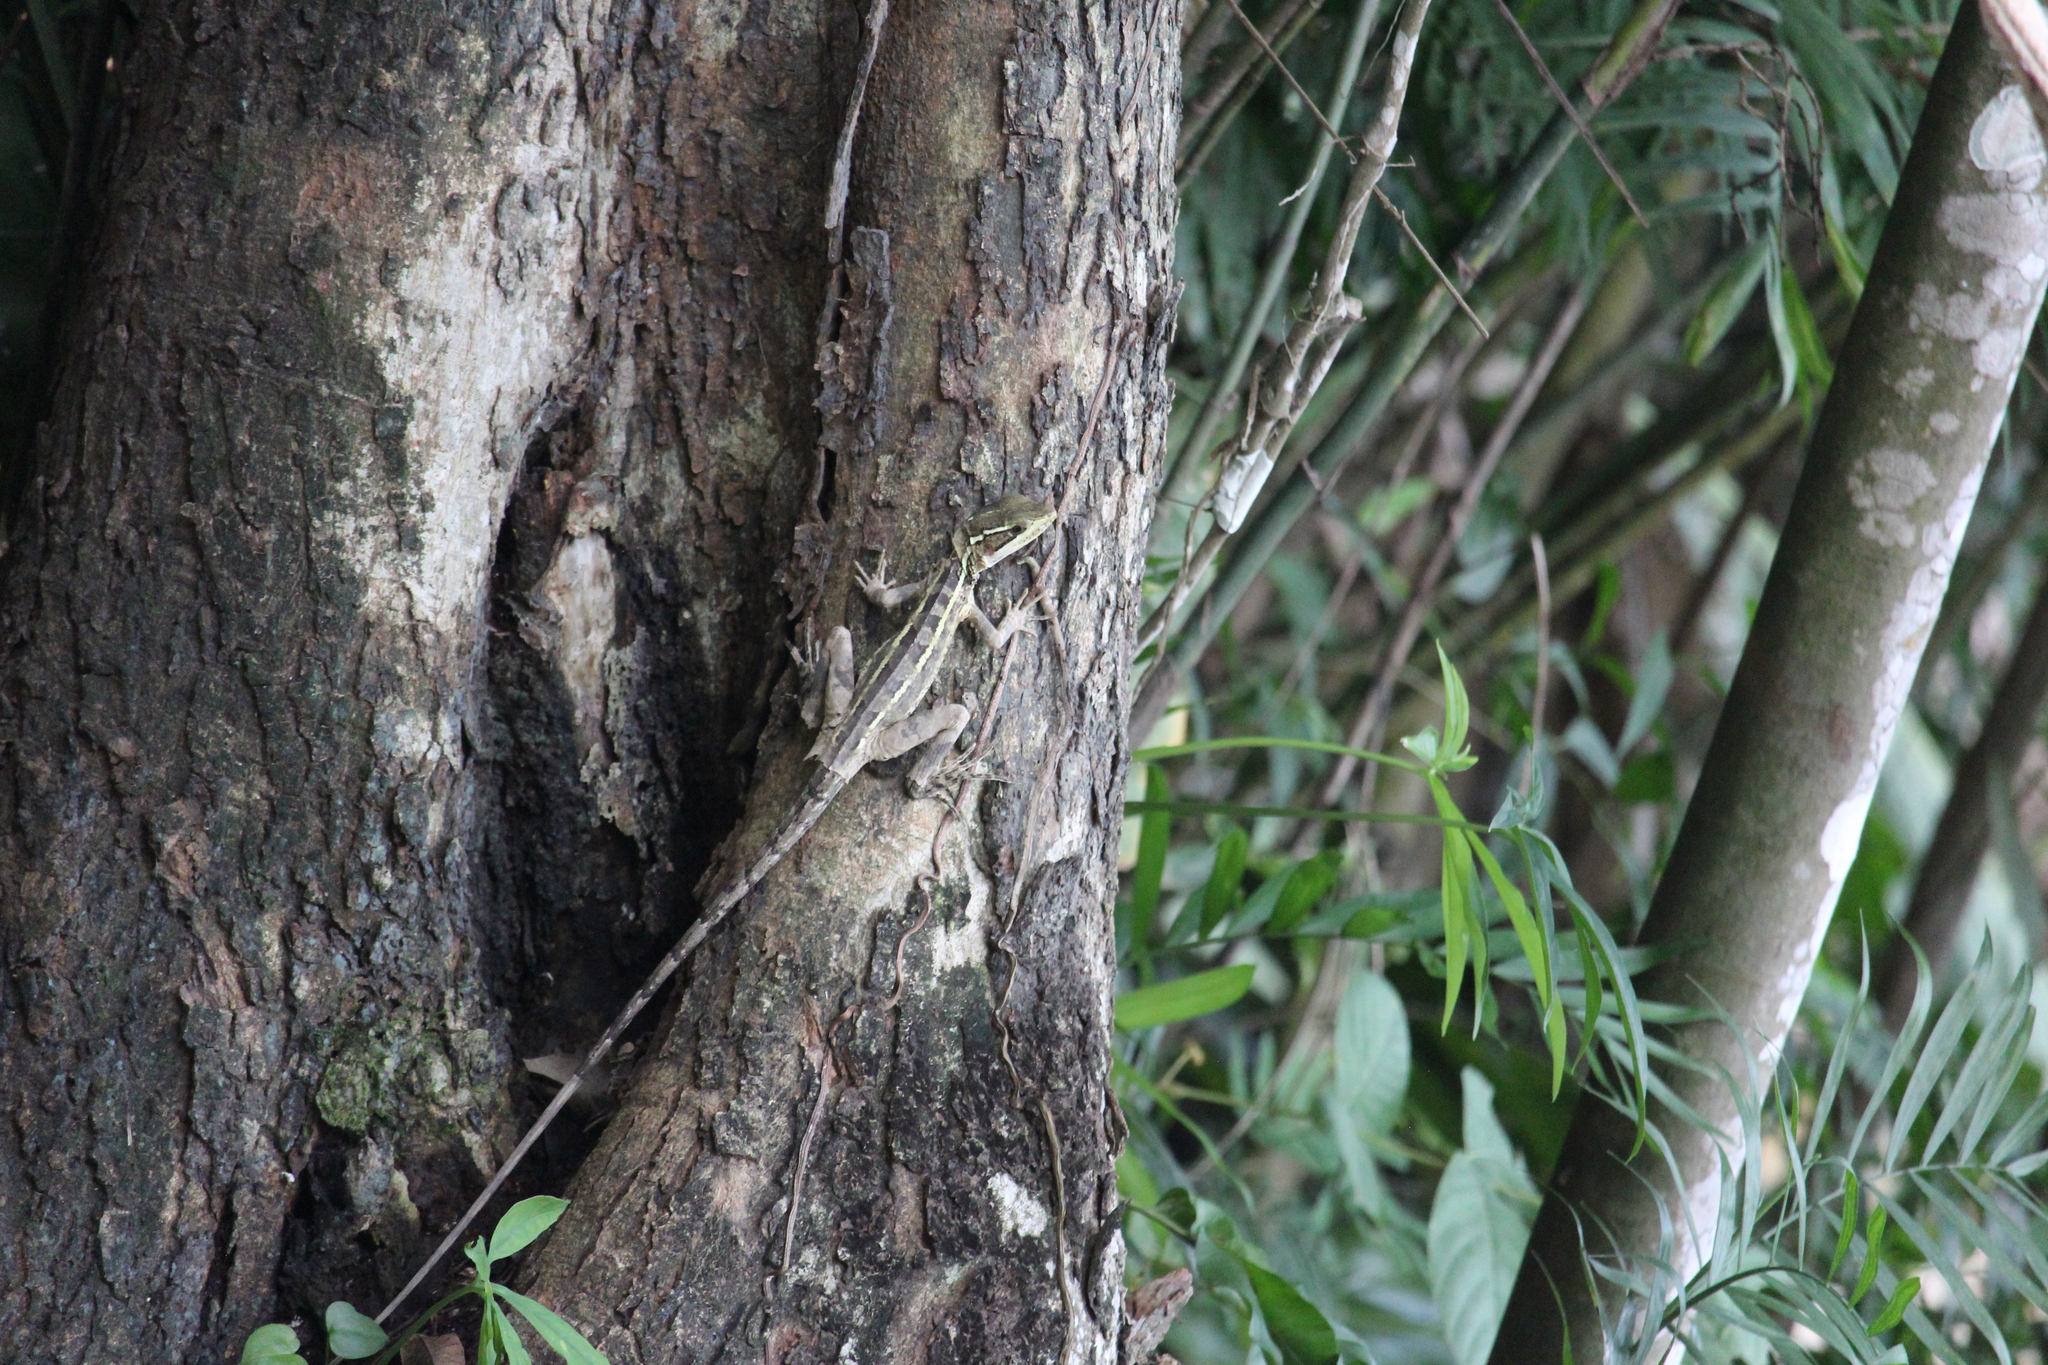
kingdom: Animalia
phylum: Chordata
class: Squamata
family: Corytophanidae
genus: Basiliscus
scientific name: Basiliscus vittatus
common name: Brown basilisk
